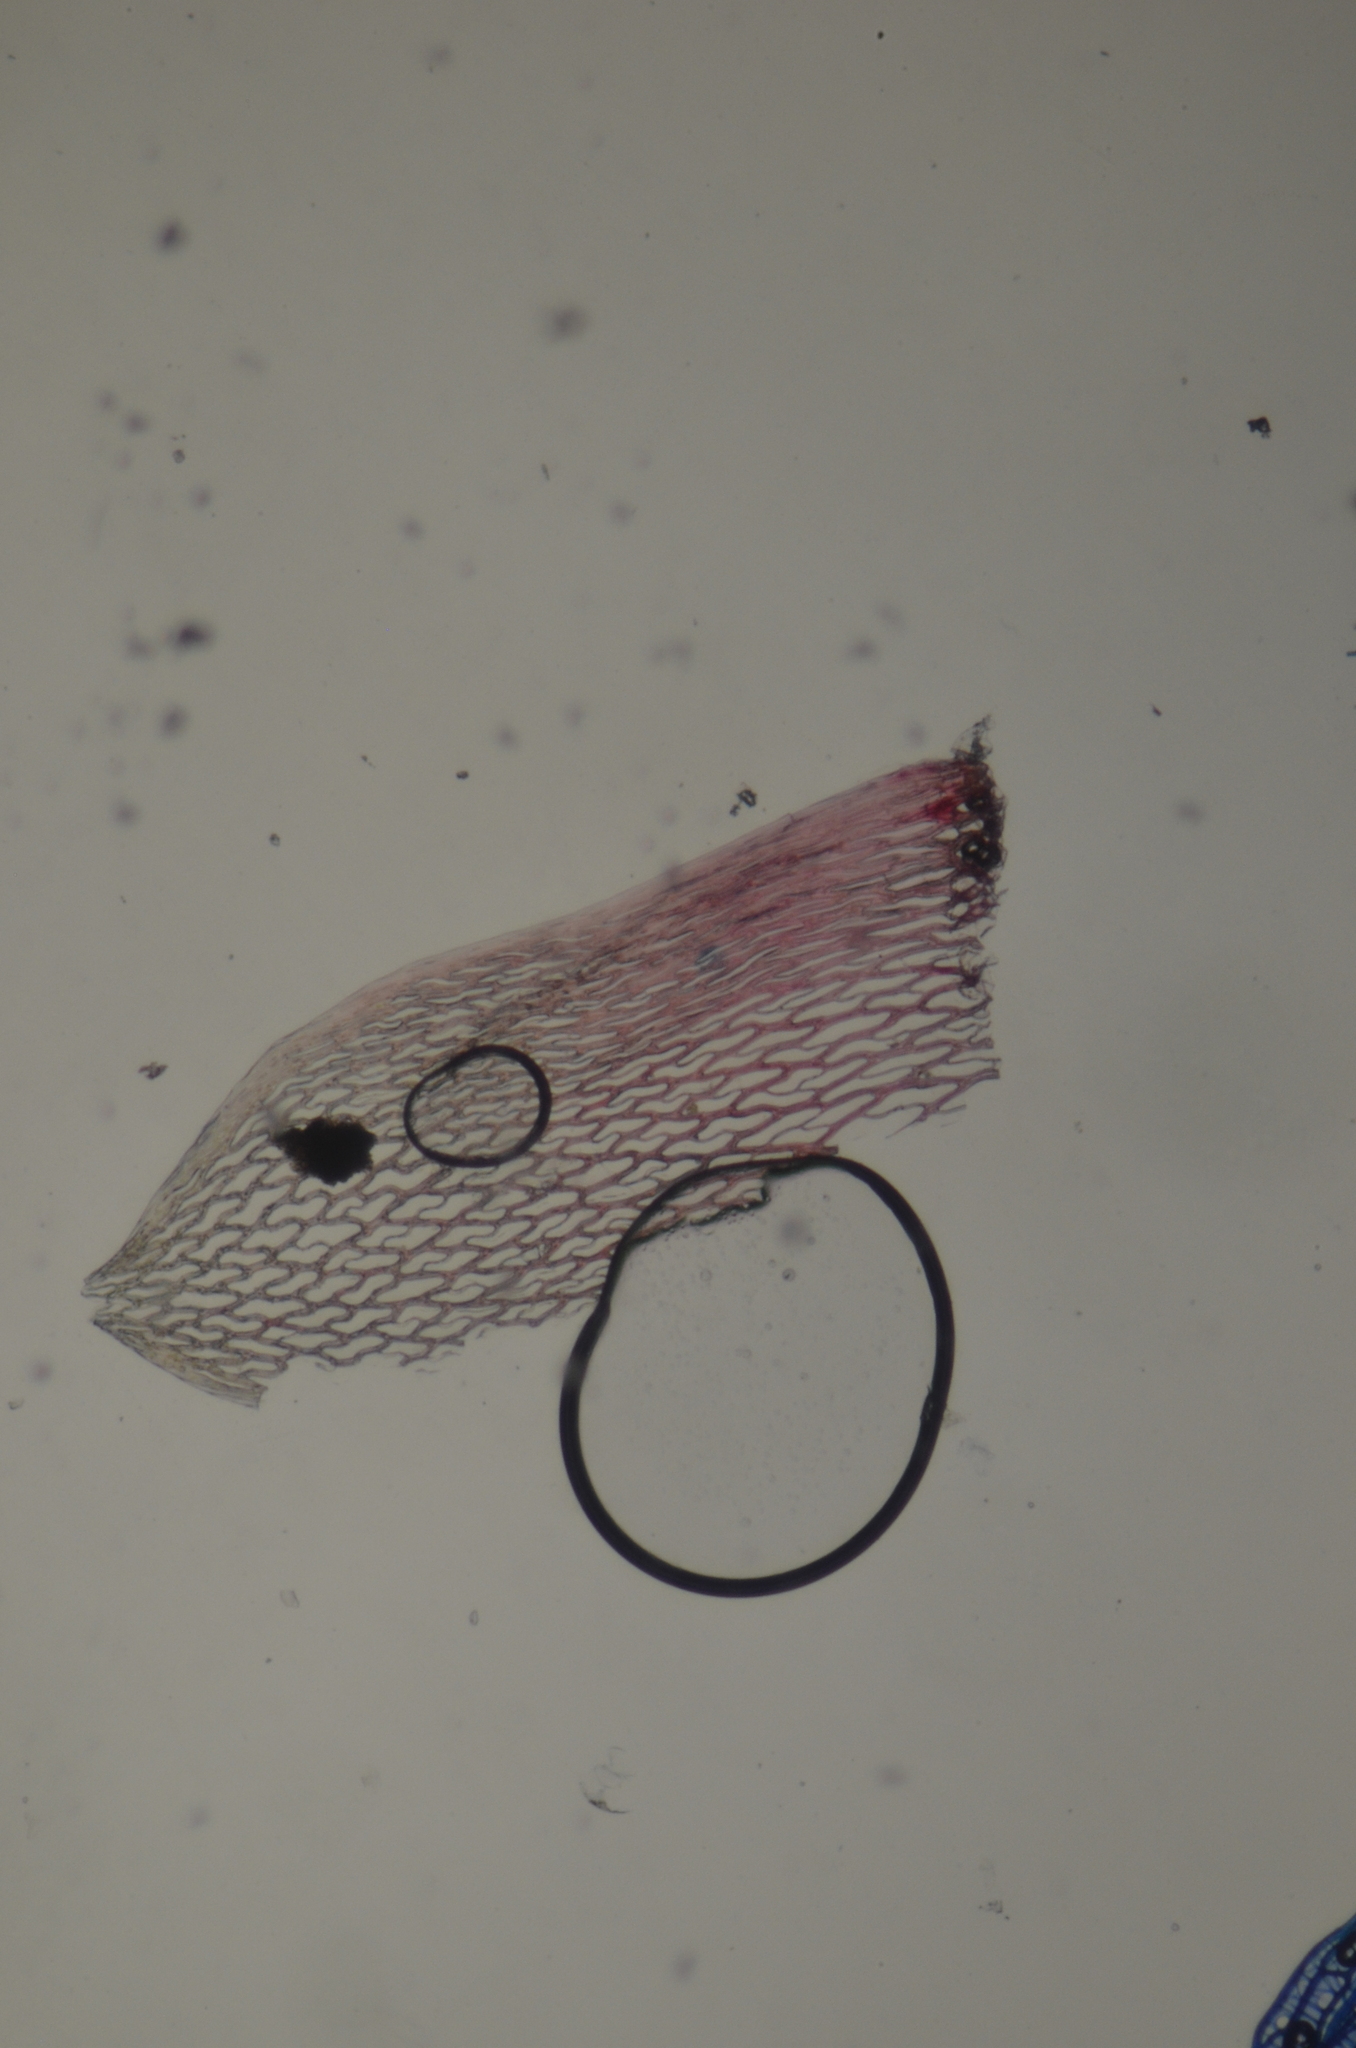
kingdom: Plantae
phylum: Bryophyta
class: Sphagnopsida
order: Sphagnales
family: Sphagnaceae
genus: Sphagnum
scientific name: Sphagnum subnitens
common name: Lustrous bog-moss
